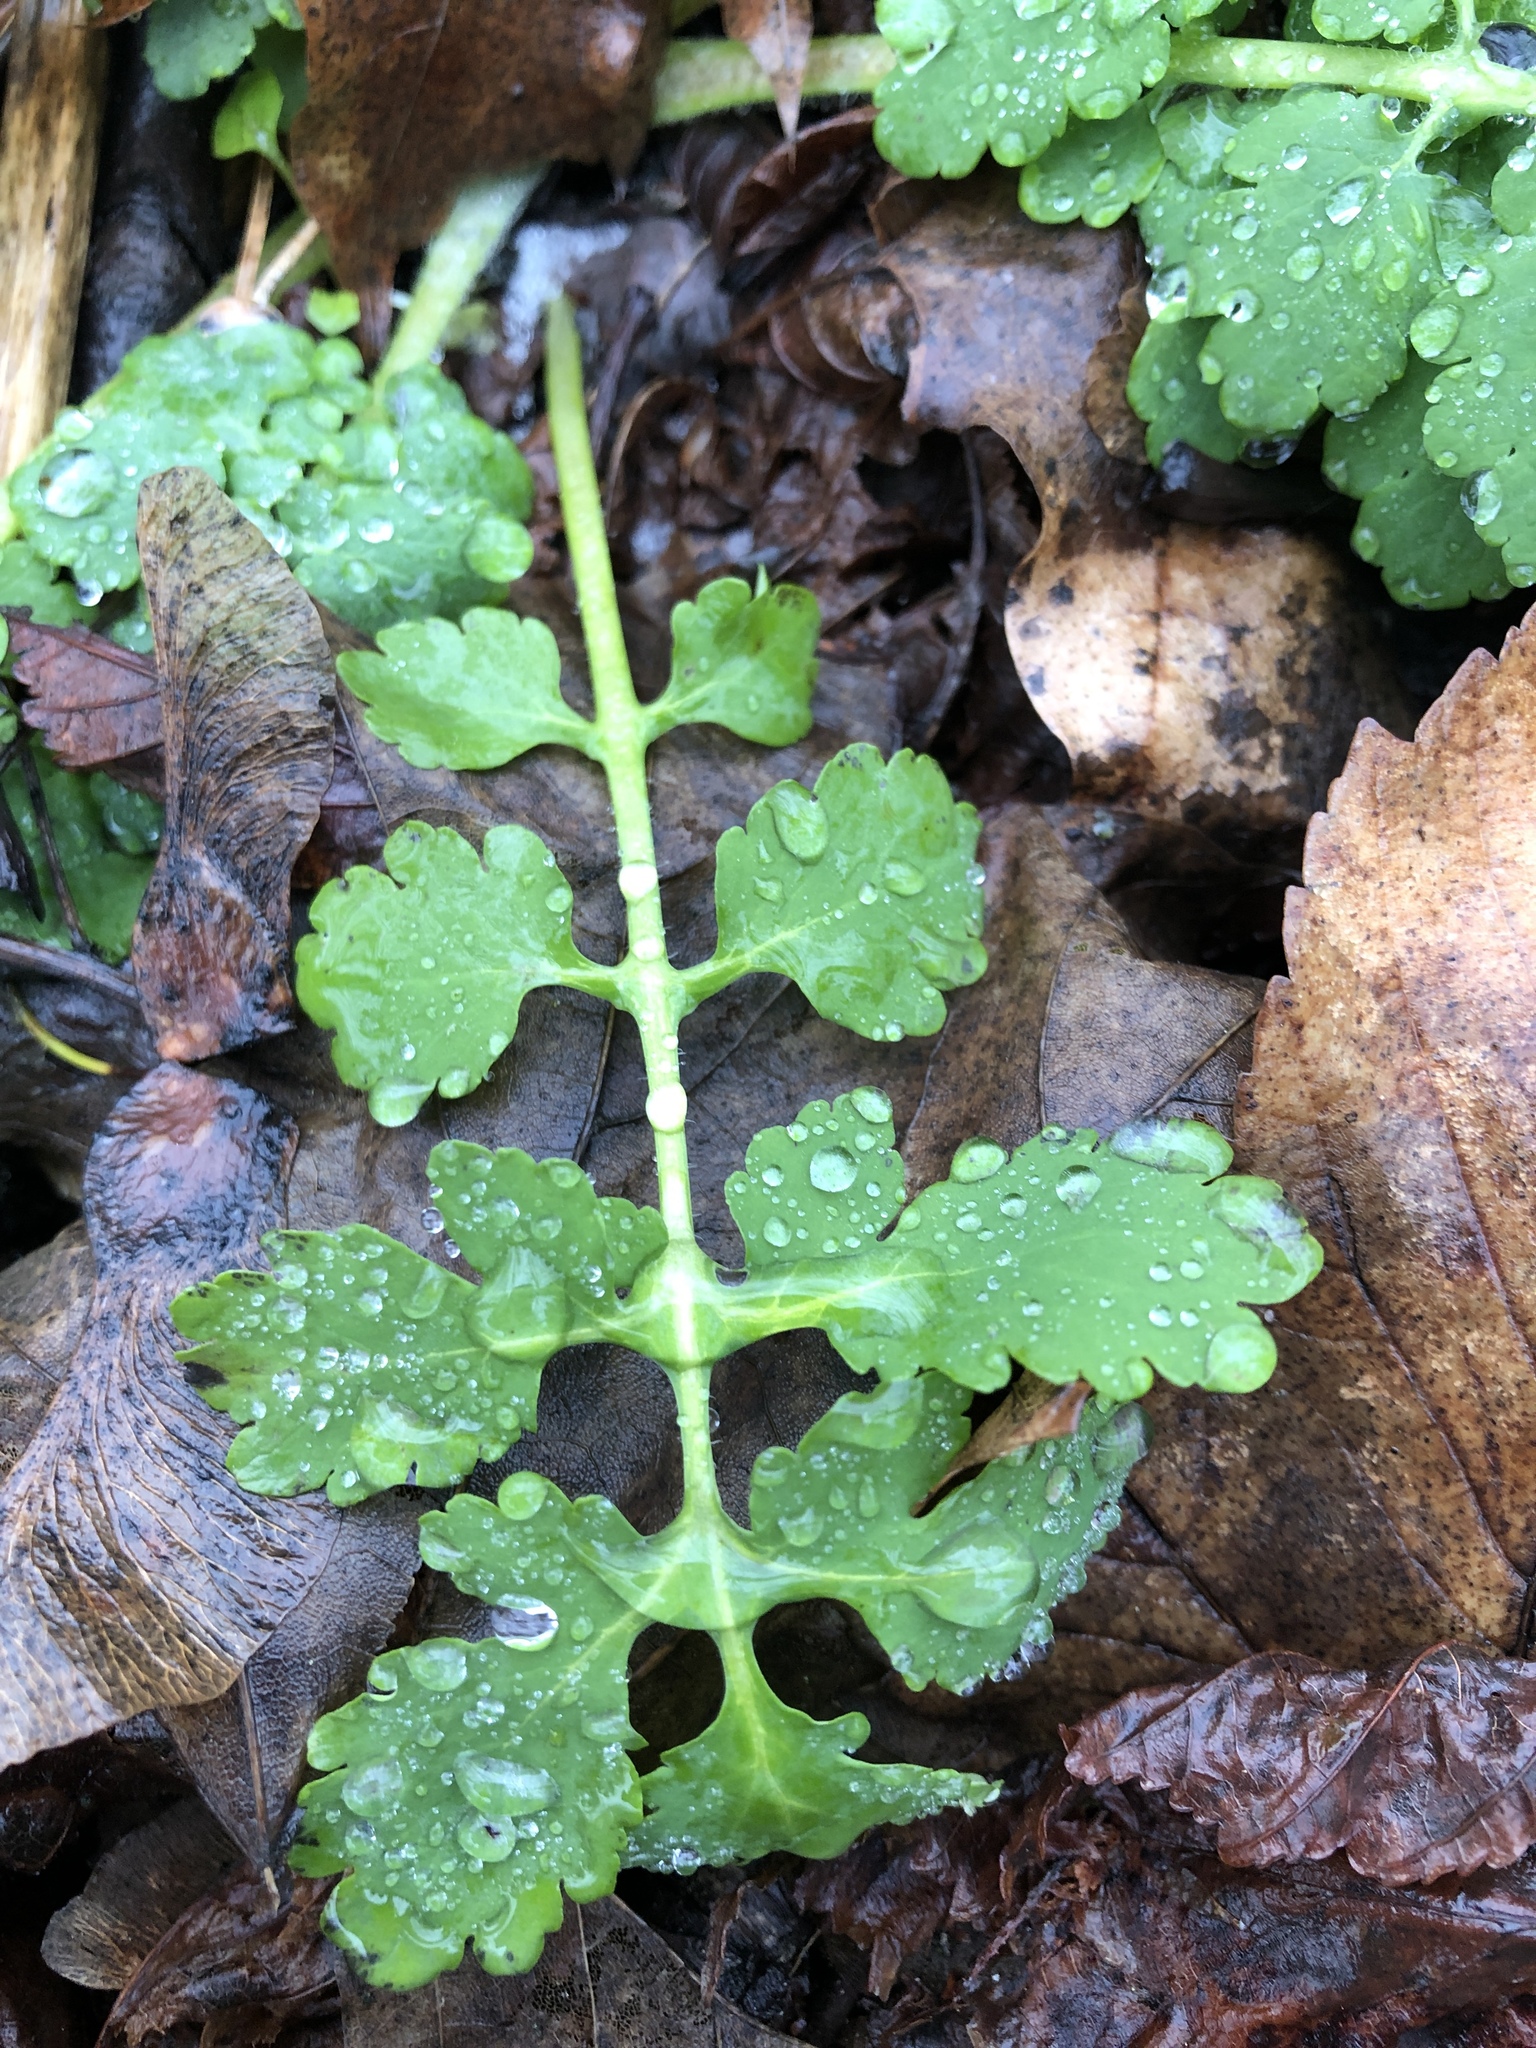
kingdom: Plantae
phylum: Tracheophyta
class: Magnoliopsida
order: Ranunculales
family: Papaveraceae
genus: Chelidonium
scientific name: Chelidonium majus
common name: Greater celandine
